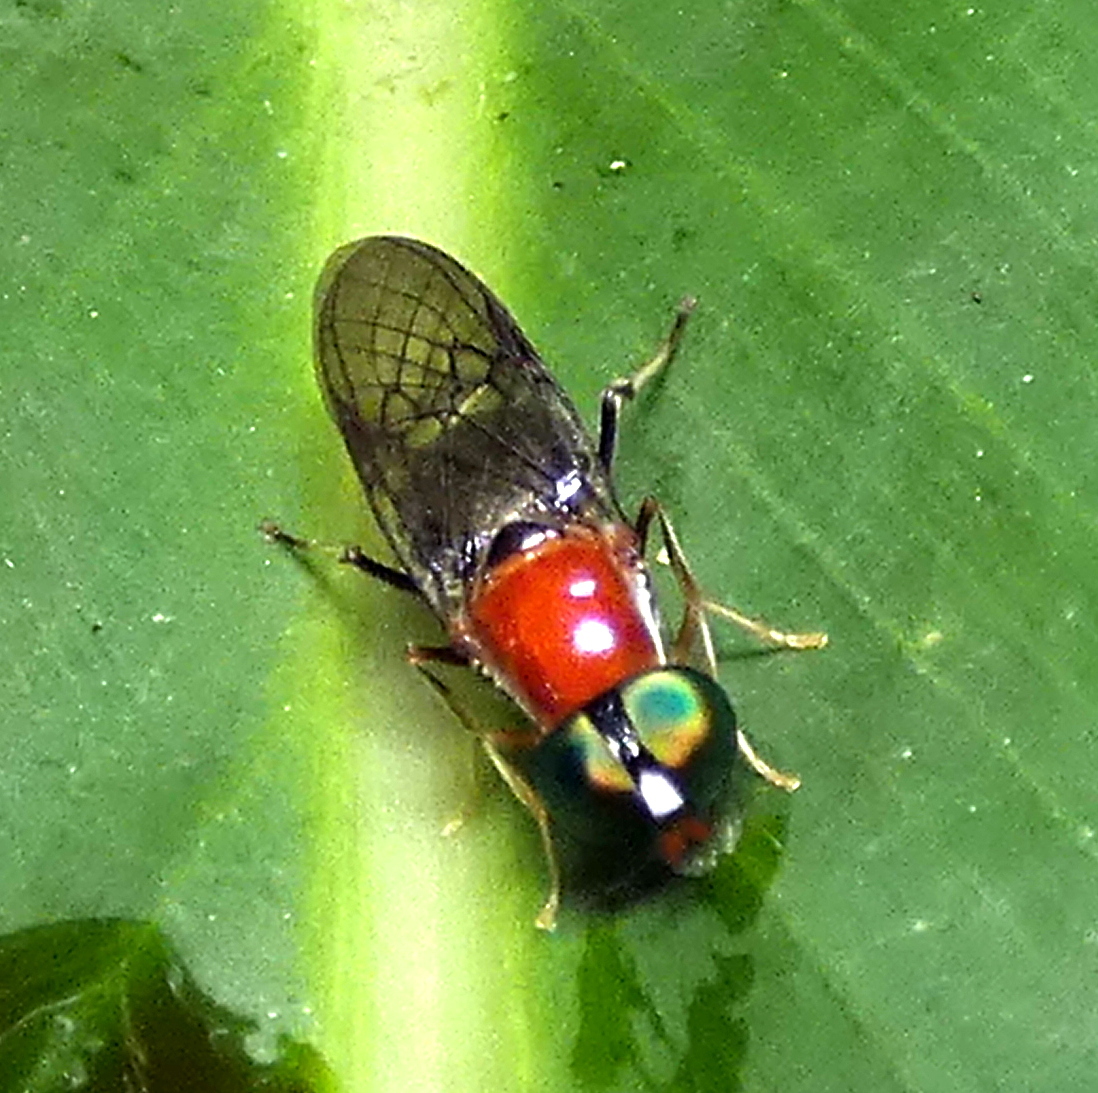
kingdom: Animalia
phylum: Arthropoda
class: Insecta
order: Diptera
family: Stratiomyidae
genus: Sargus
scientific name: Sargus thoracicus
